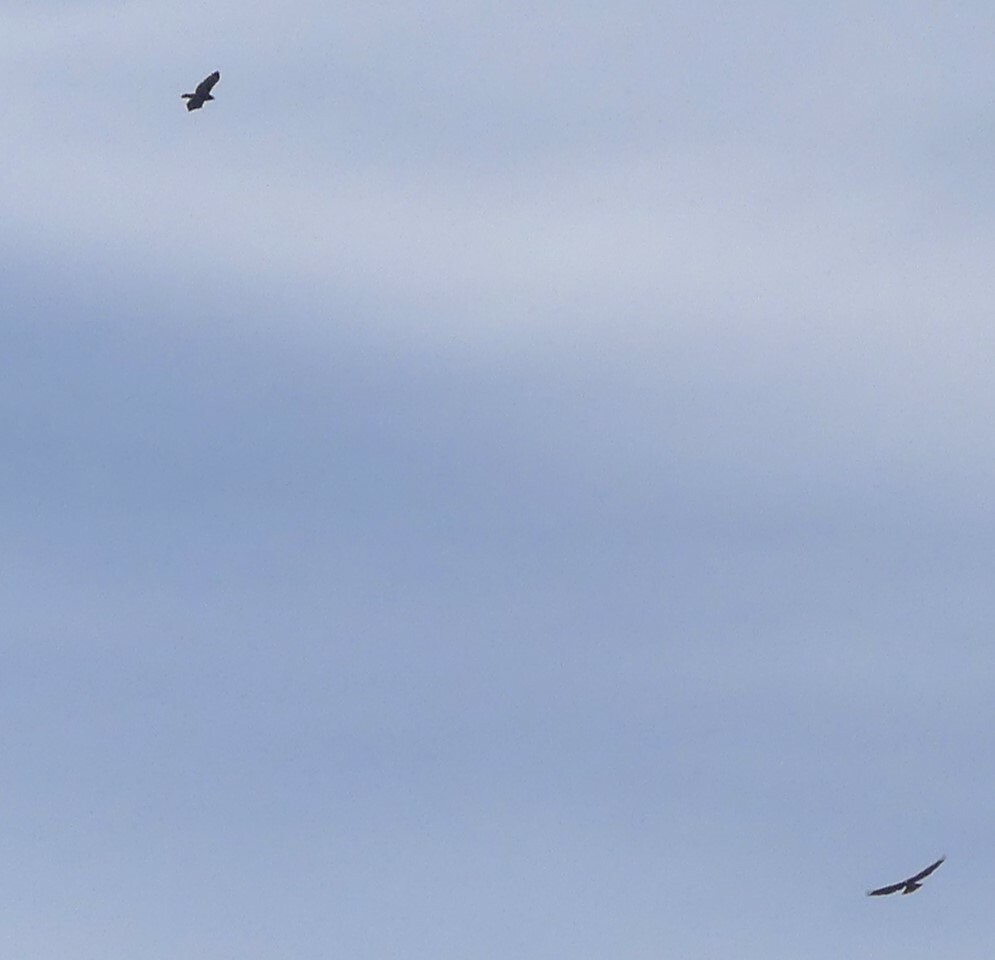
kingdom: Animalia
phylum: Chordata
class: Aves
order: Accipitriformes
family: Accipitridae
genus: Buteo
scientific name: Buteo jamaicensis
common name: Red-tailed hawk
